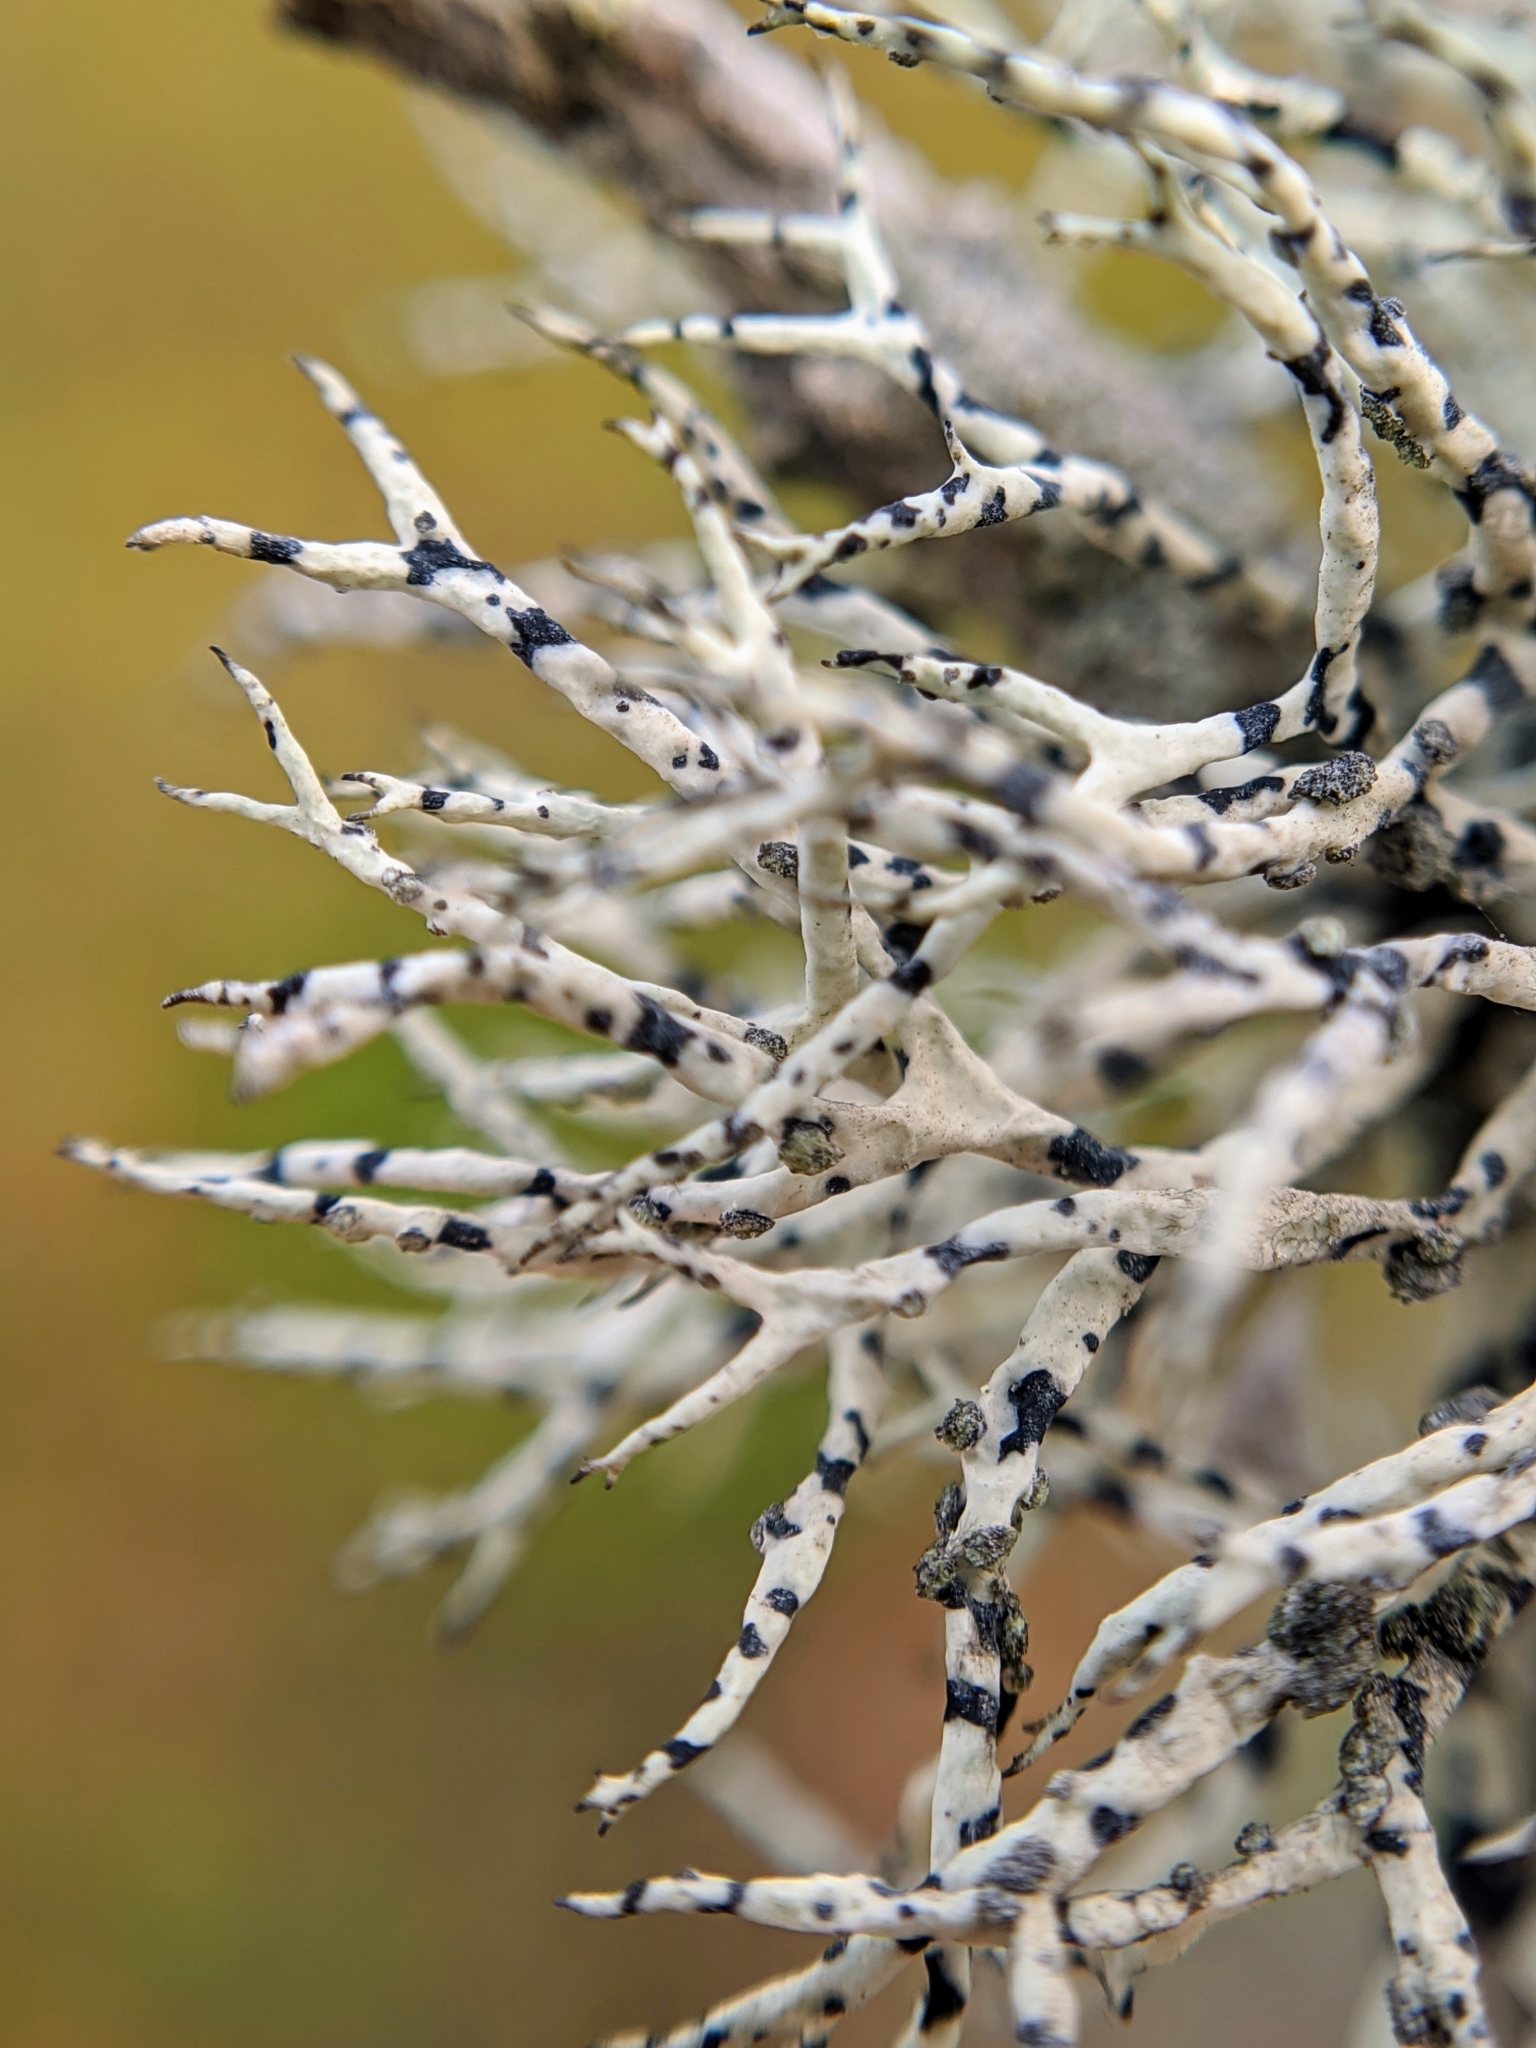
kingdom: Fungi
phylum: Ascomycota
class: Lecanoromycetes
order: Lecanorales
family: Ramalinaceae
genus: Niebla
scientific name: Niebla cephalota
